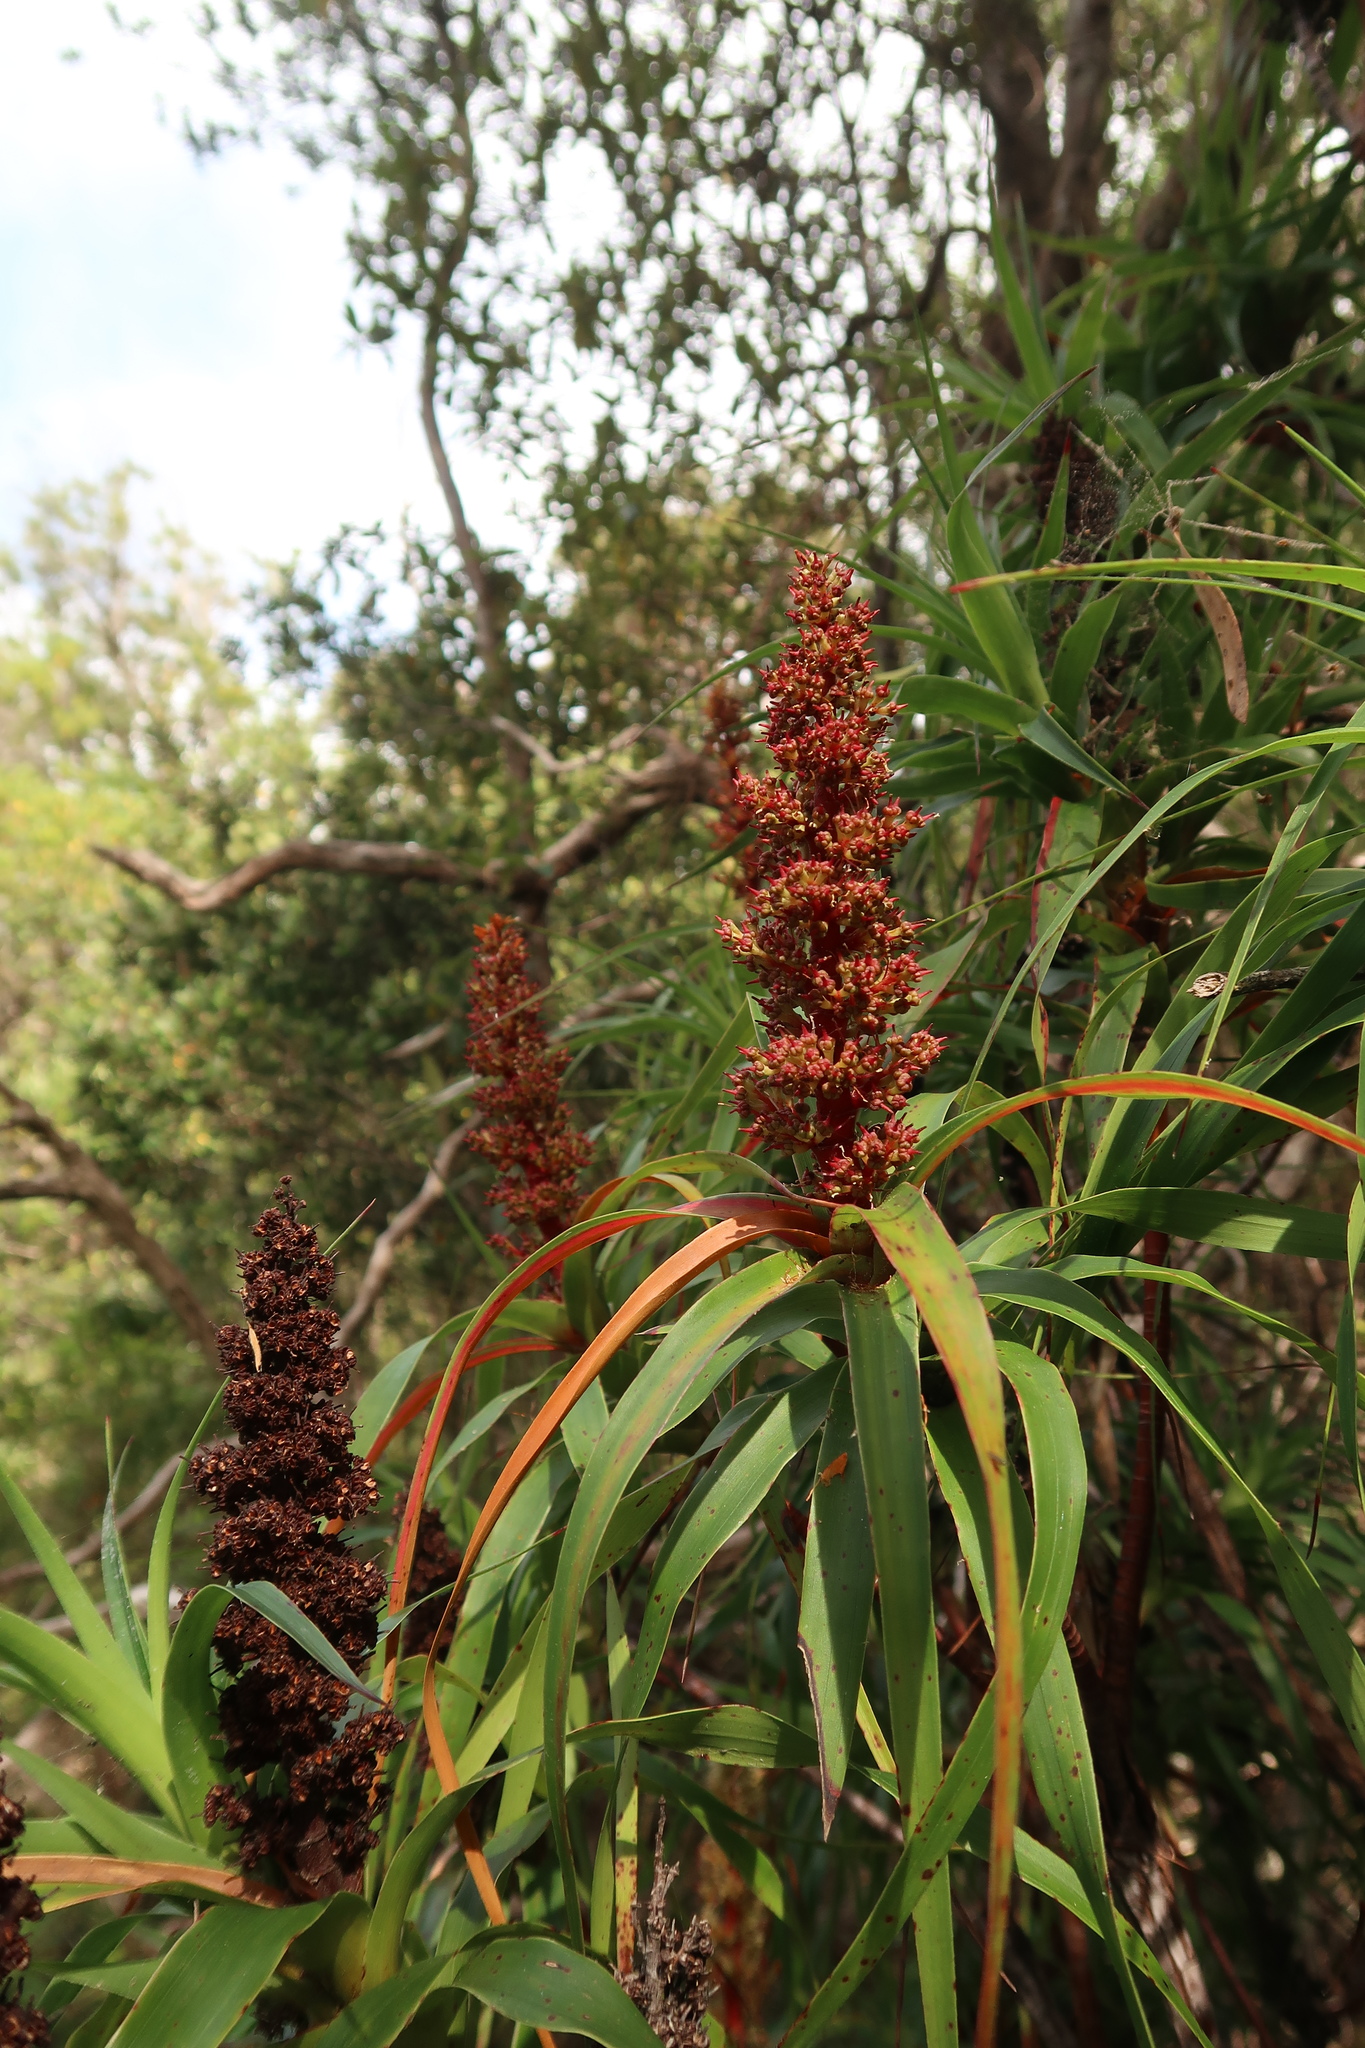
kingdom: Plantae
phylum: Tracheophyta
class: Magnoliopsida
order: Ericales
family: Ericaceae
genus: Dracophyllum
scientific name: Dracophyllum desgrazii
